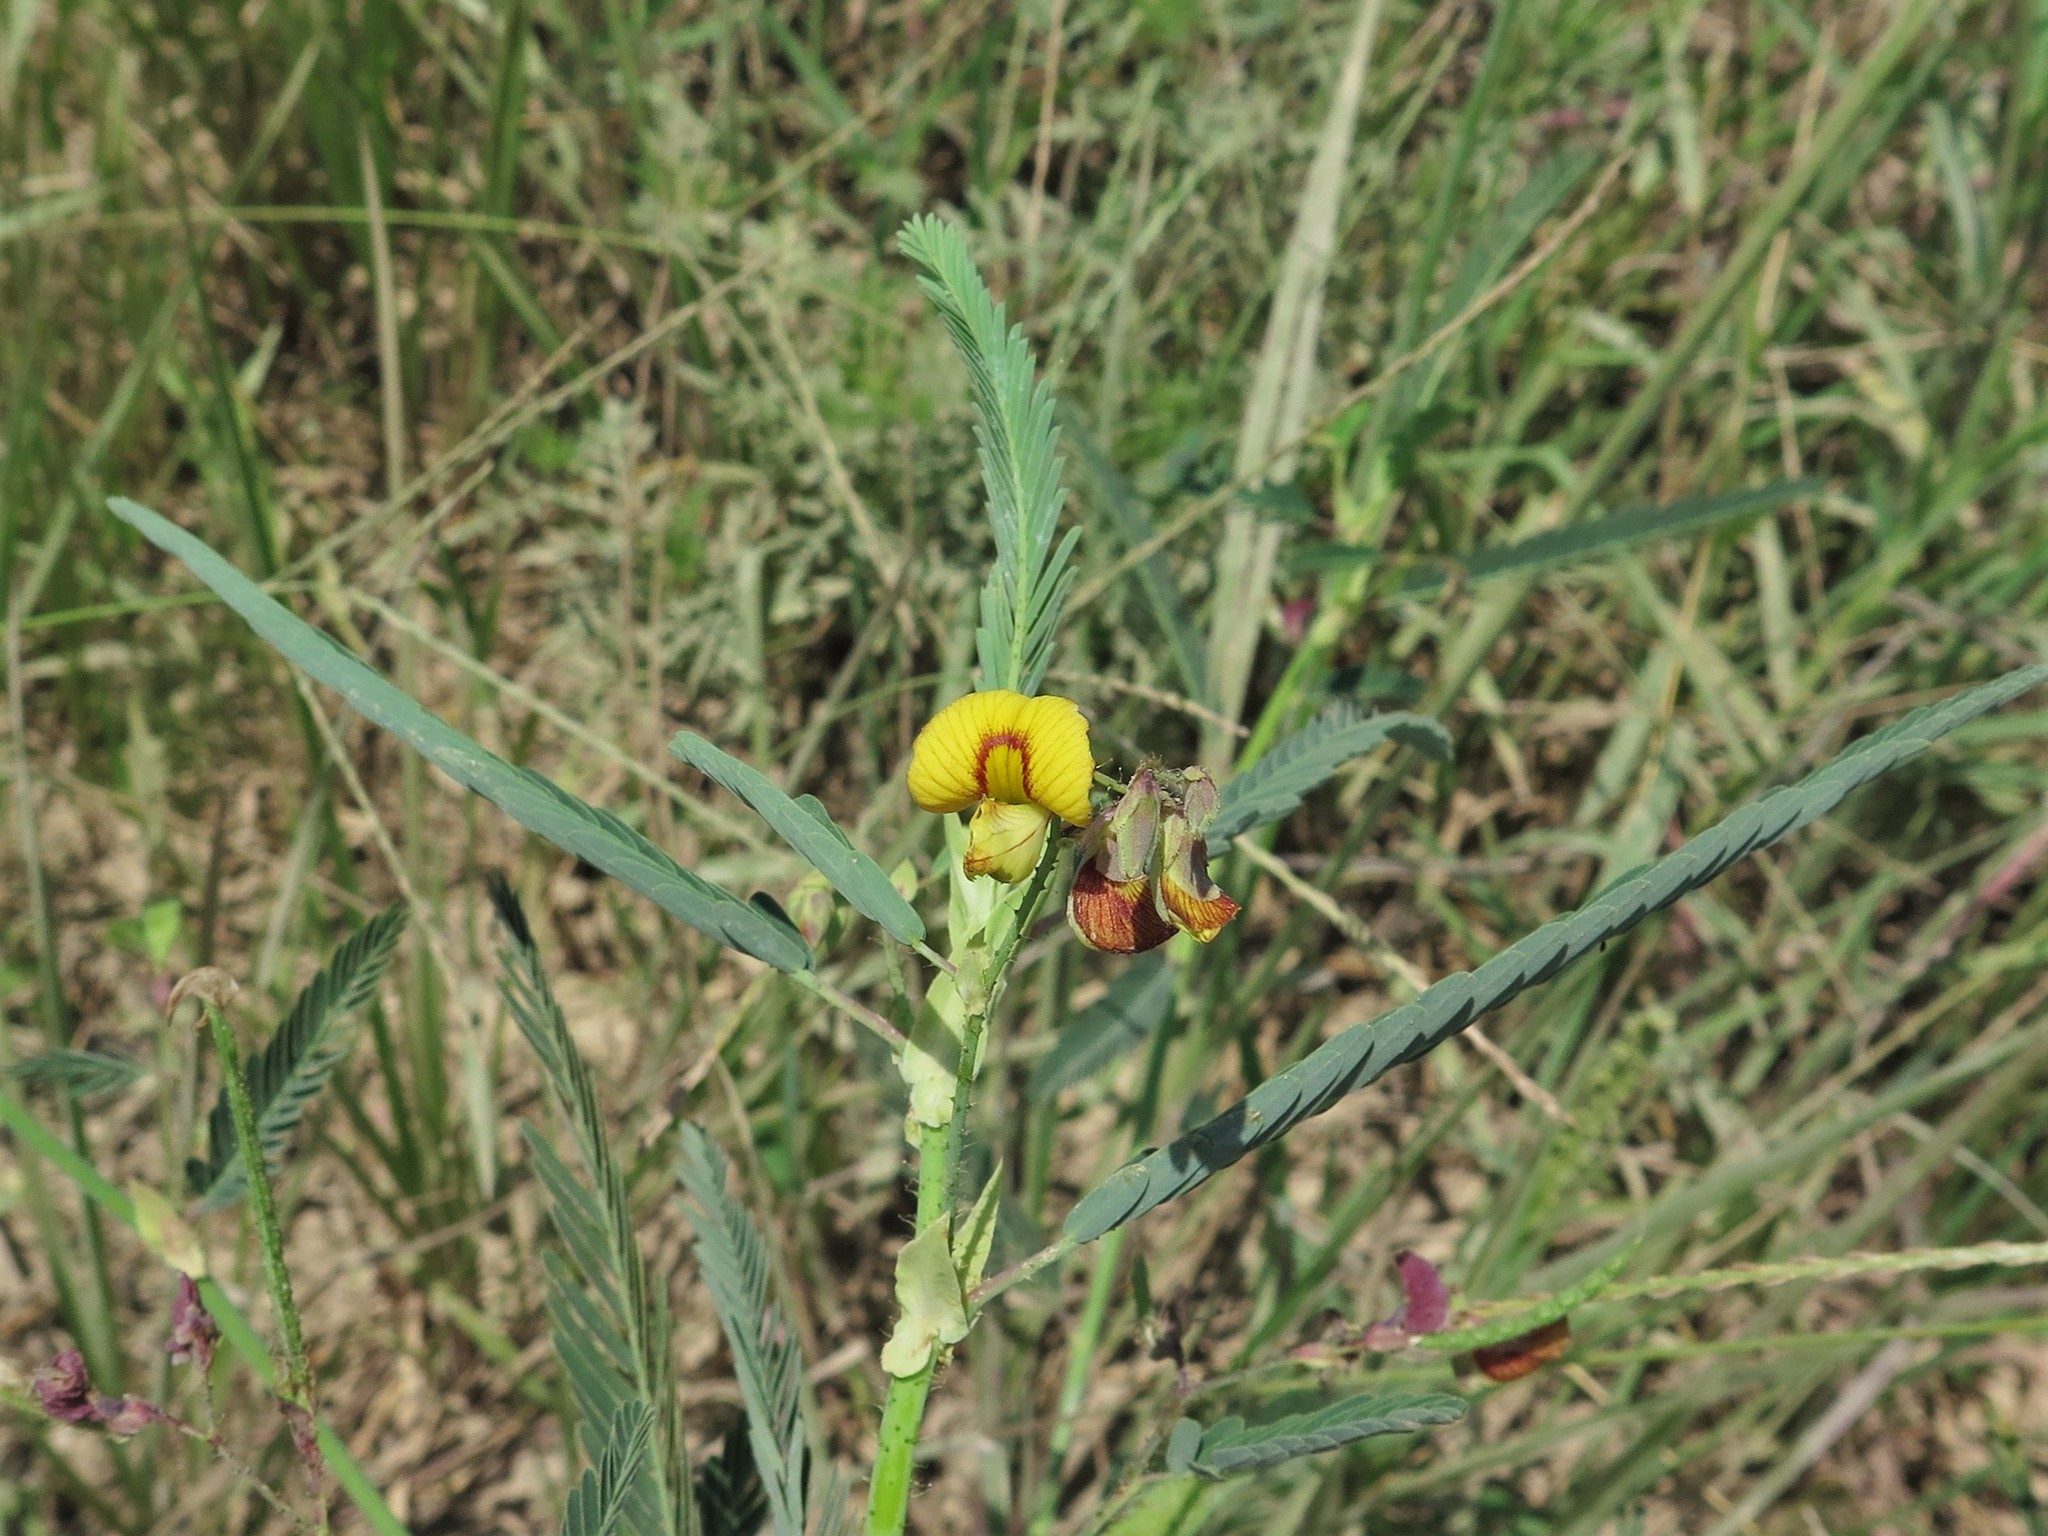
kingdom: Plantae
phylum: Tracheophyta
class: Magnoliopsida
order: Fabales
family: Fabaceae
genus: Aeschynomene
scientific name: Aeschynomene rudis
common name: Rough joint-vetch
